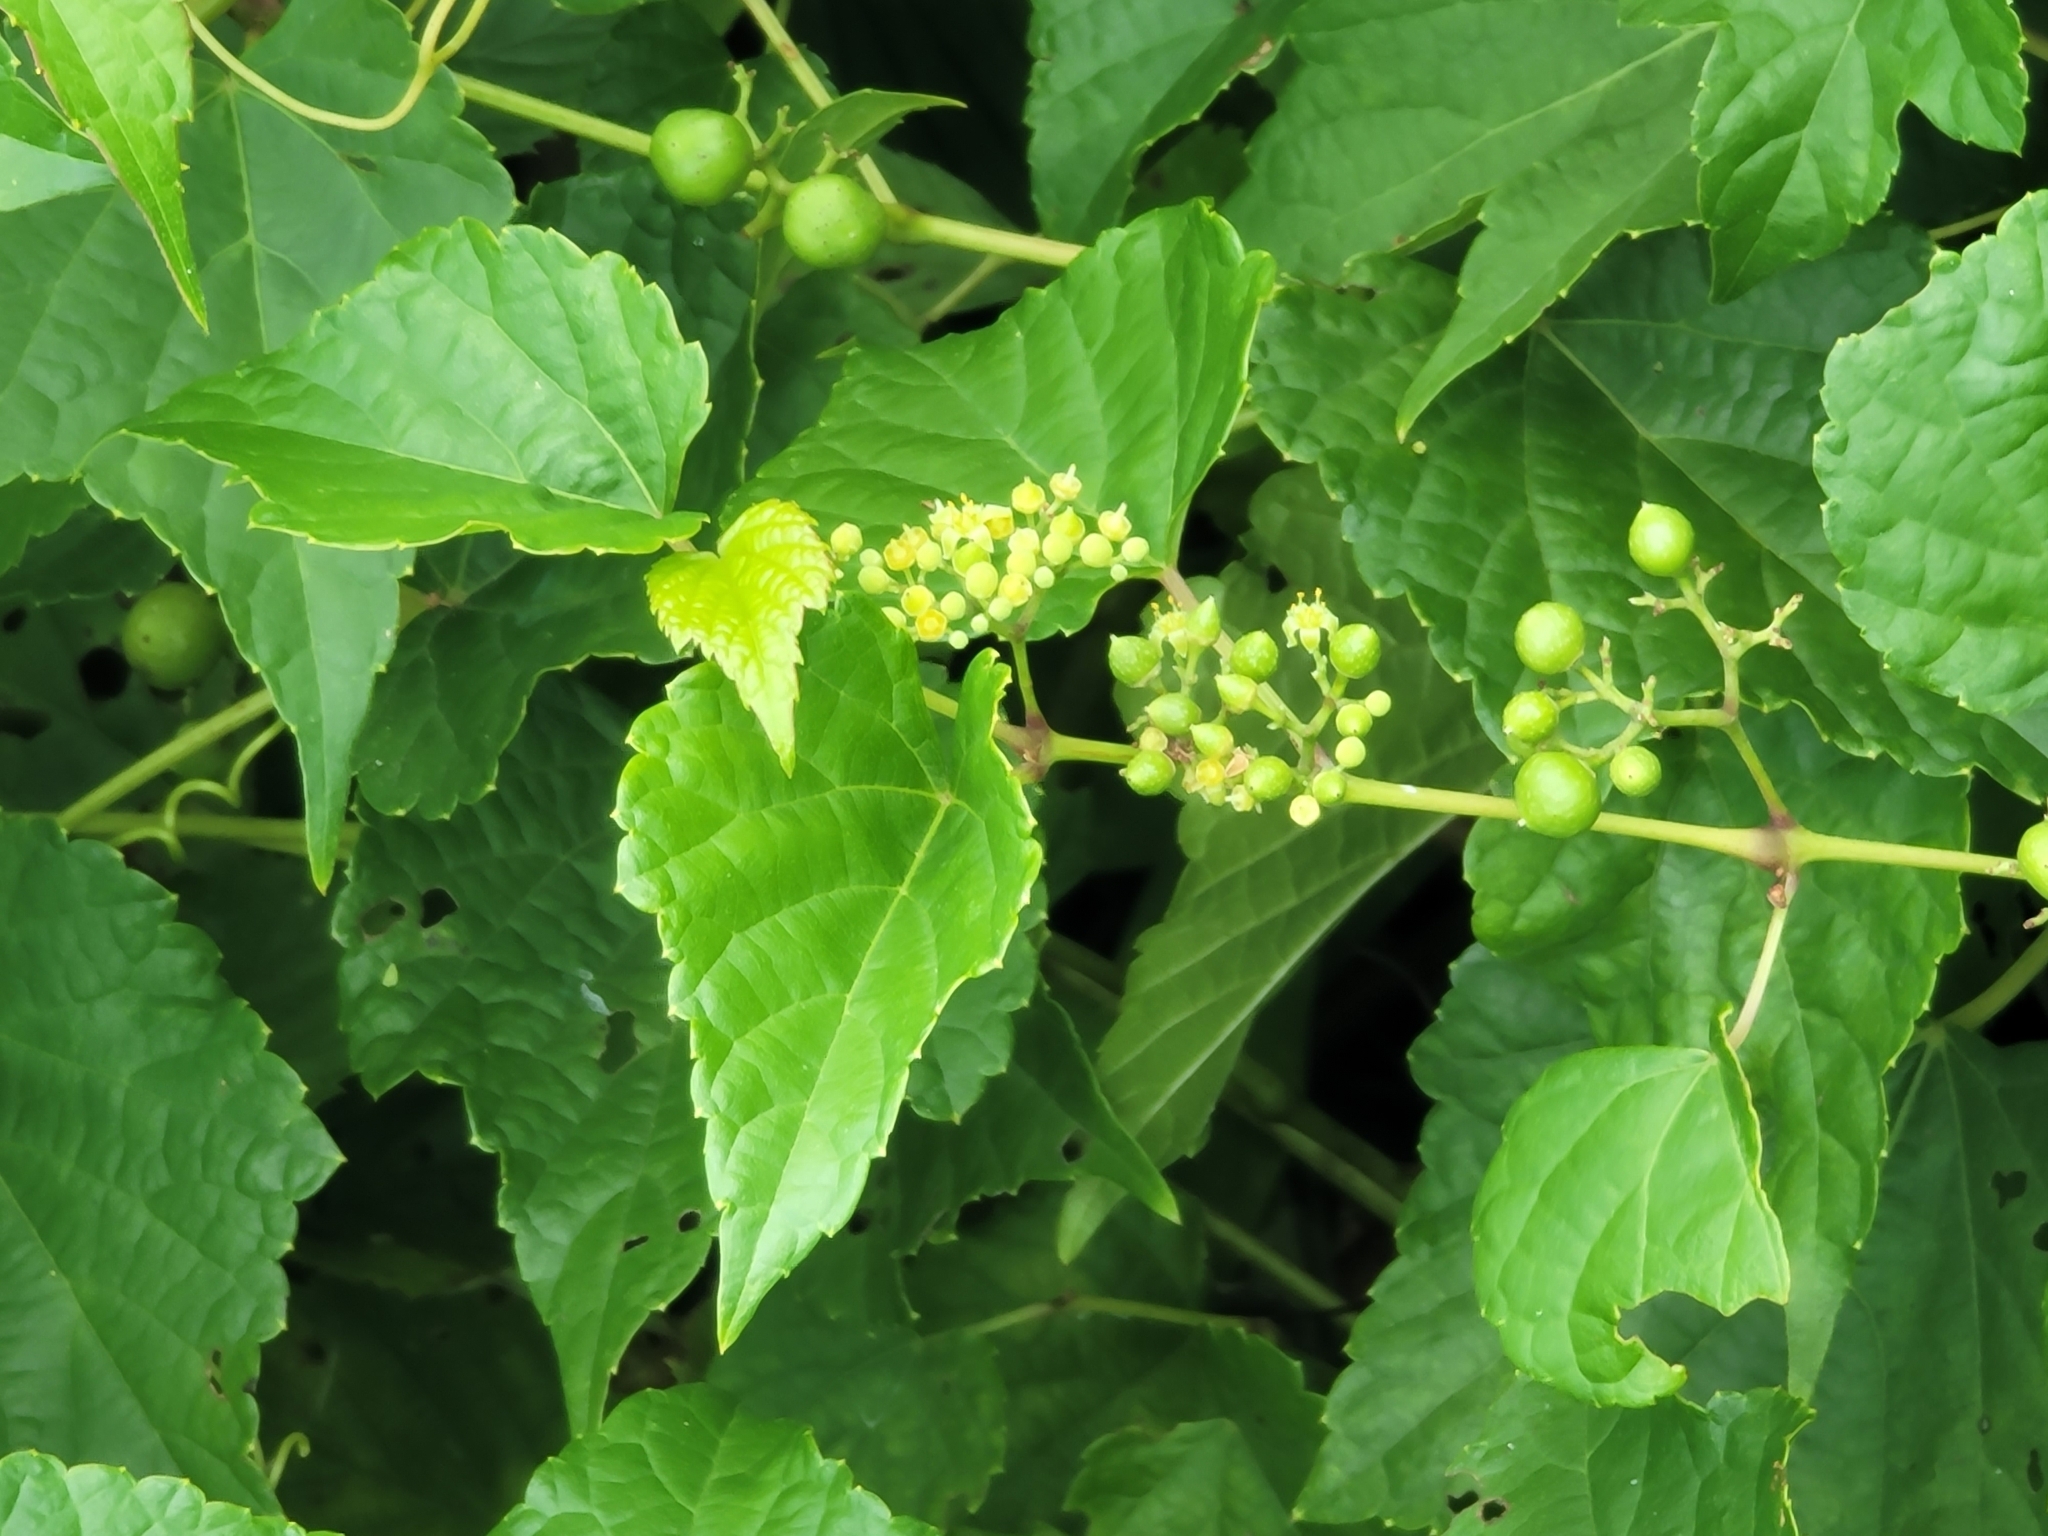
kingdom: Plantae
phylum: Tracheophyta
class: Magnoliopsida
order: Vitales
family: Vitaceae
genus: Ampelopsis
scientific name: Ampelopsis glandulosa
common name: Amur peppervine
